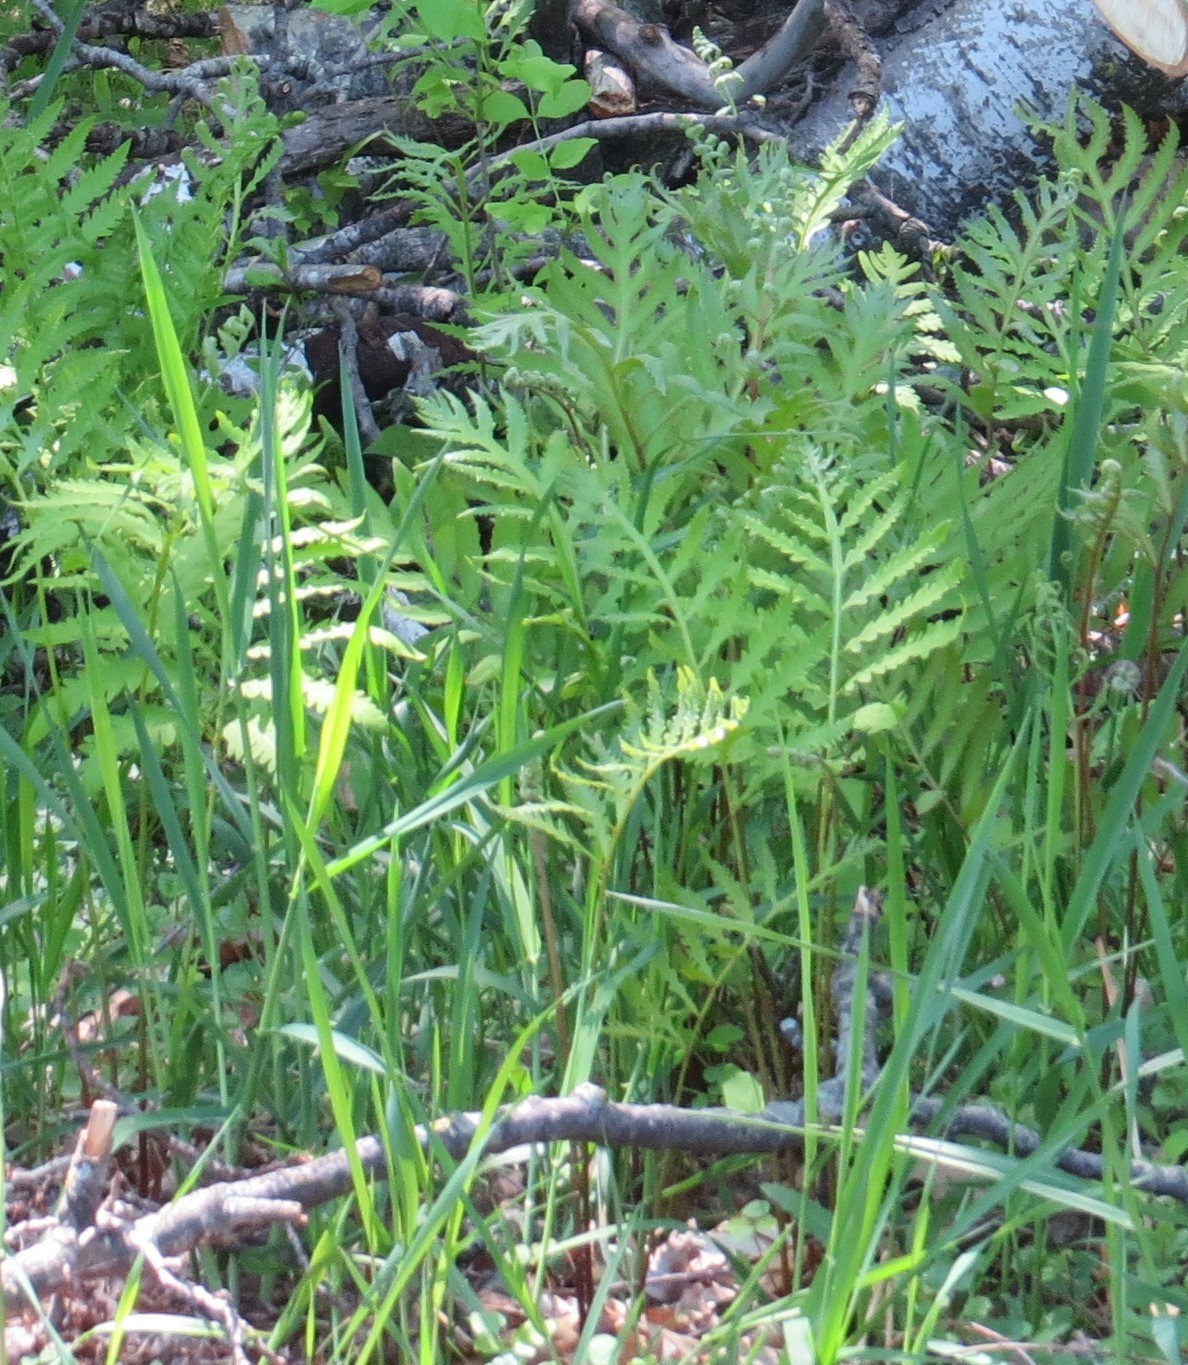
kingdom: Plantae
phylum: Tracheophyta
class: Polypodiopsida
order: Polypodiales
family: Onocleaceae
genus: Onoclea
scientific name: Onoclea sensibilis
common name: Sensitive fern
